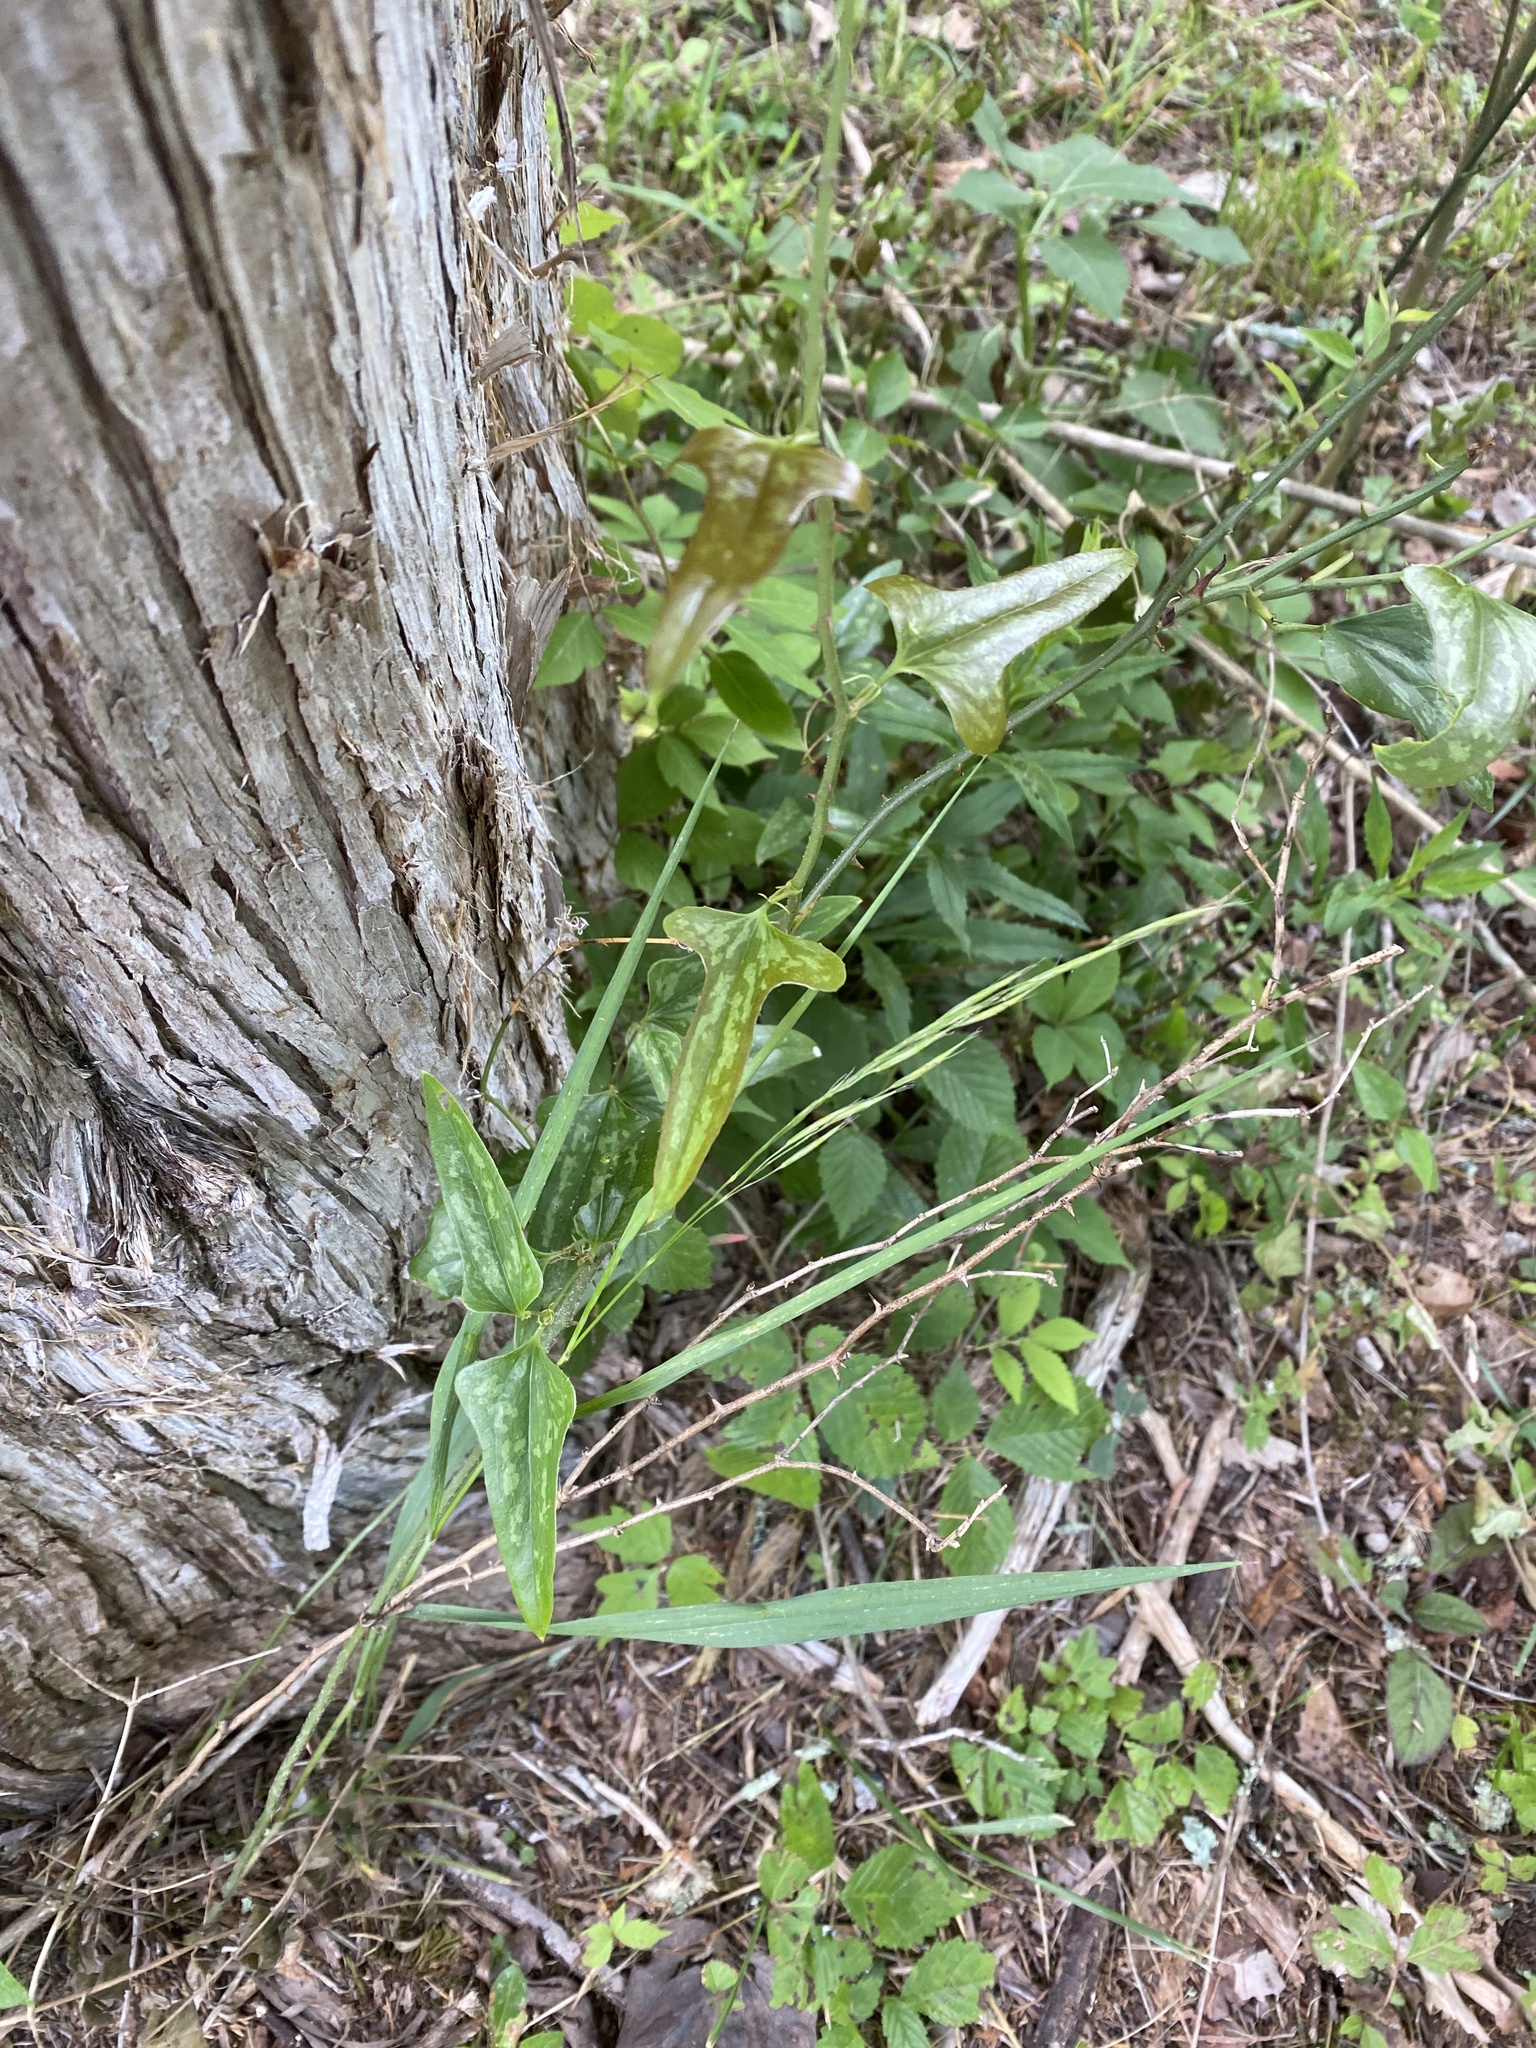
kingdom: Plantae
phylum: Tracheophyta
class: Liliopsida
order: Liliales
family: Smilacaceae
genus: Smilax
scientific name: Smilax bona-nox
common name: Catbrier
